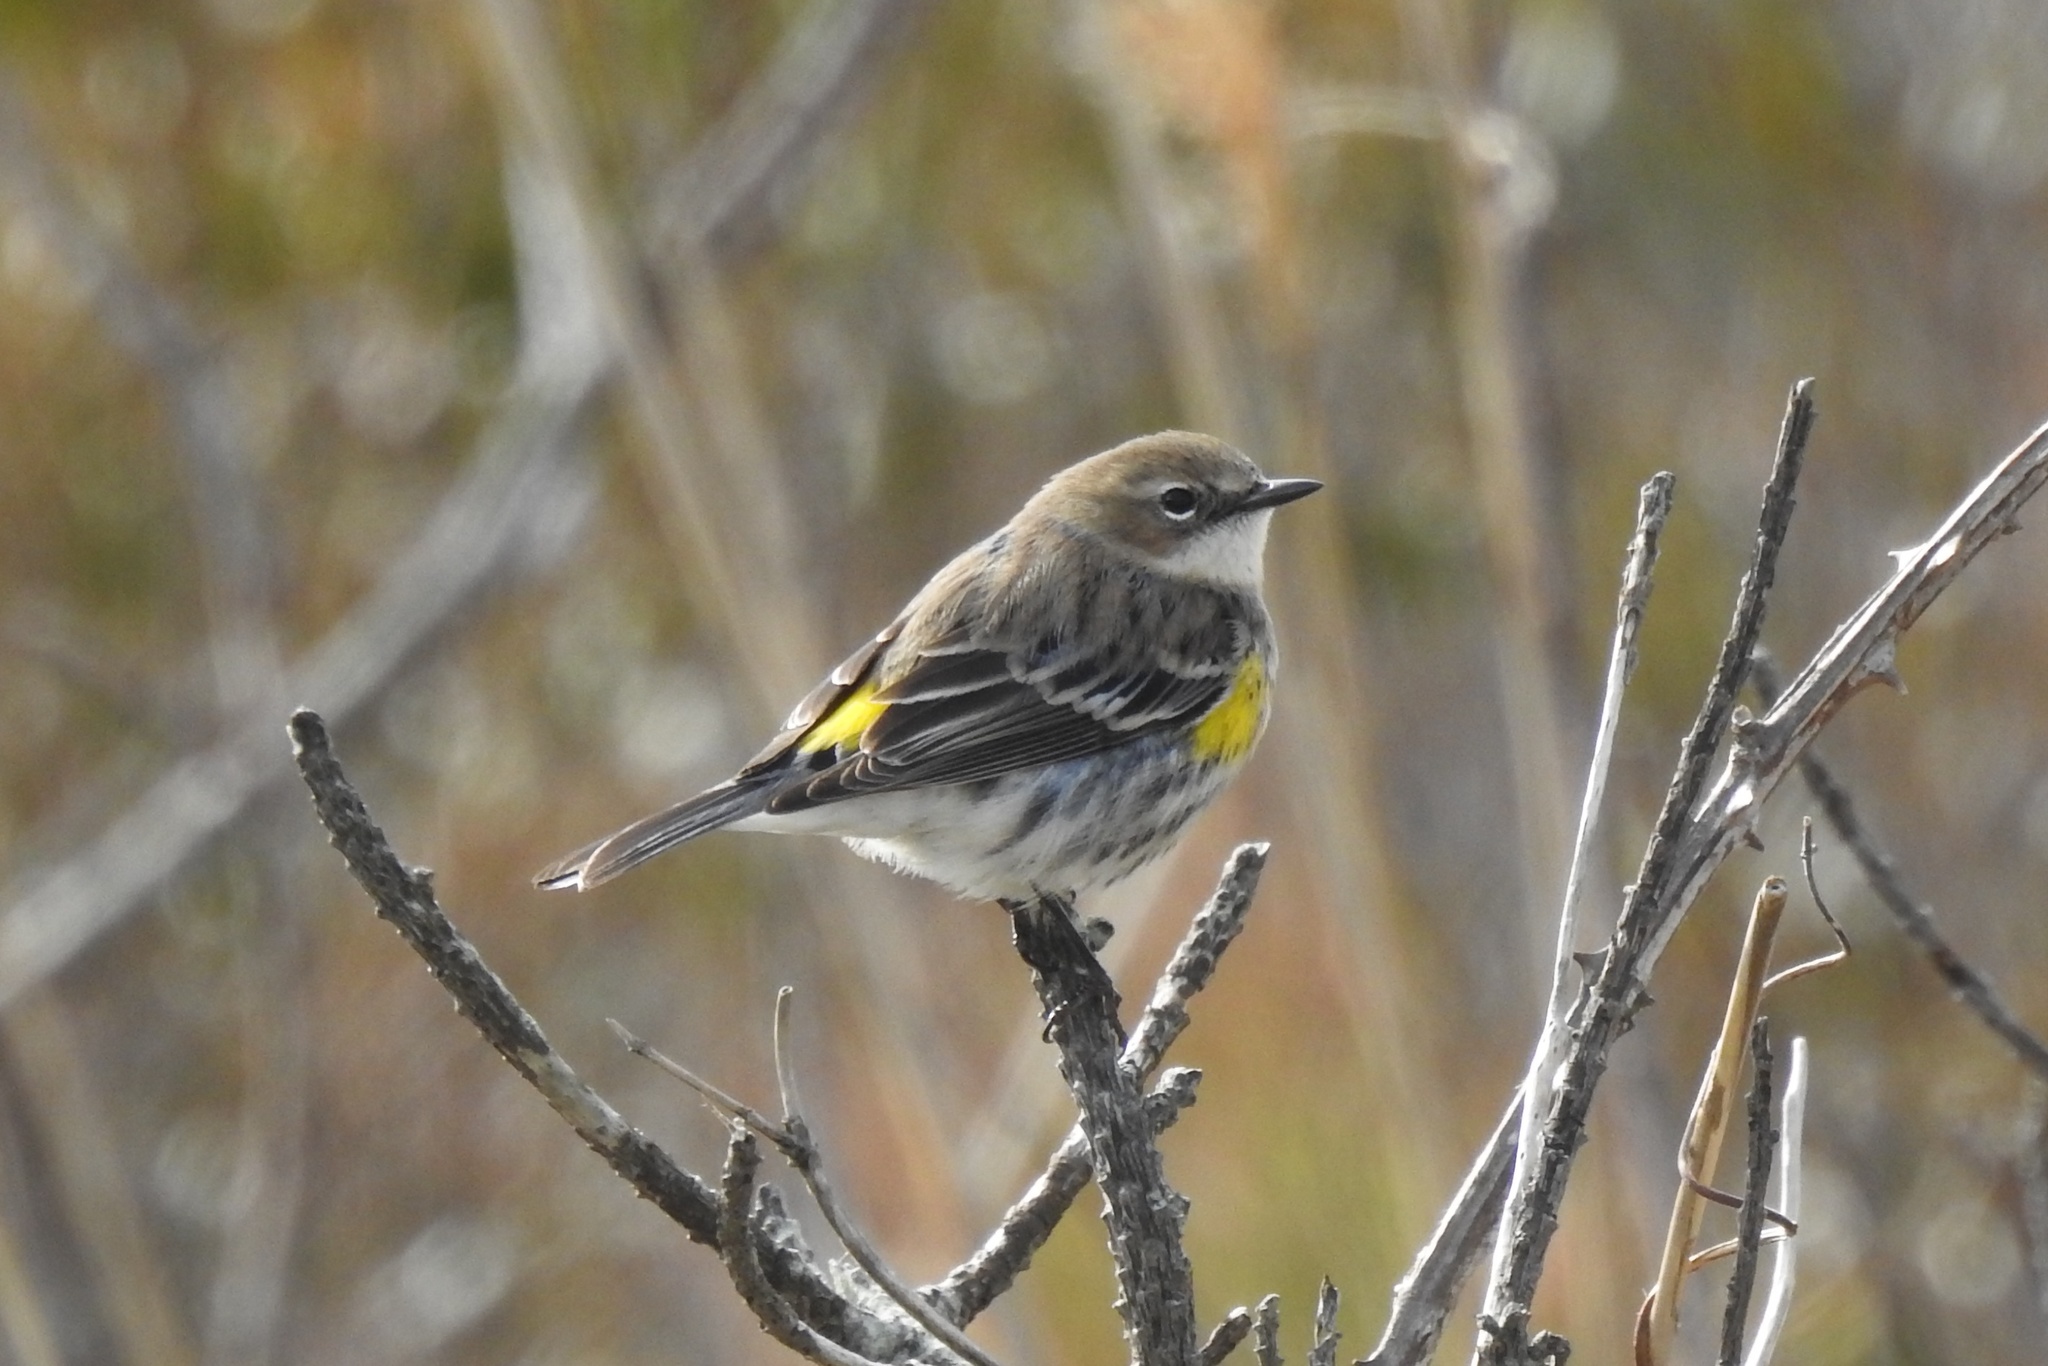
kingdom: Animalia
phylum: Chordata
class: Aves
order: Passeriformes
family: Parulidae
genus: Setophaga
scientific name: Setophaga coronata
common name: Myrtle warbler
